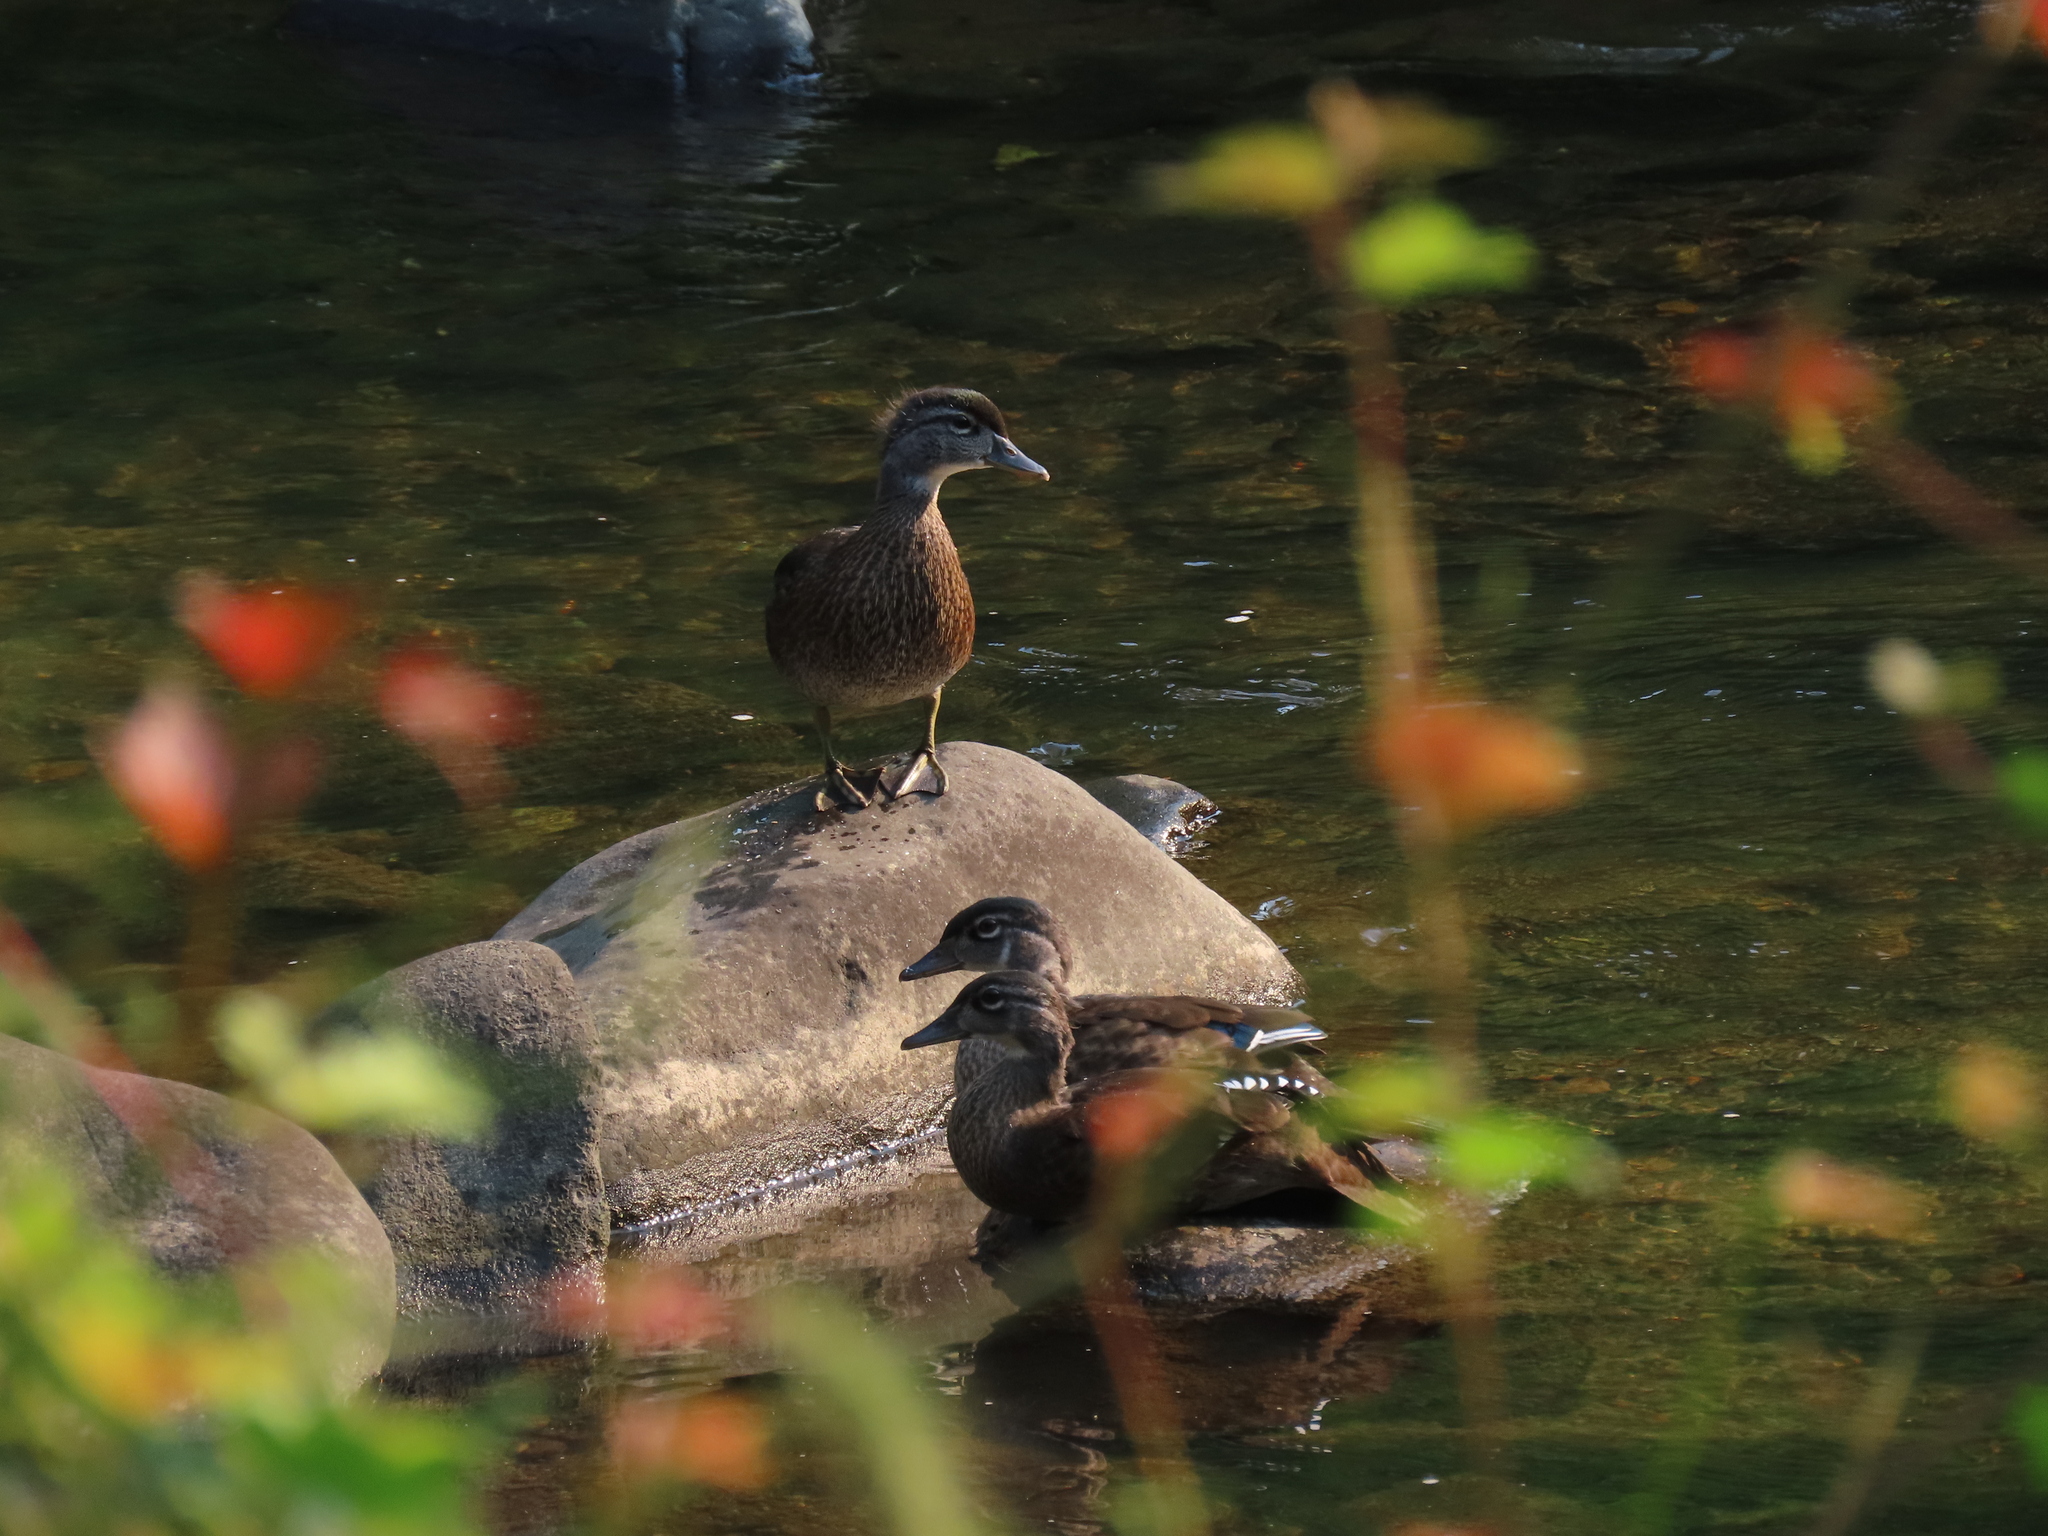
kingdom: Animalia
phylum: Chordata
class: Aves
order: Anseriformes
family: Anatidae
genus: Aix
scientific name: Aix sponsa
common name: Wood duck
